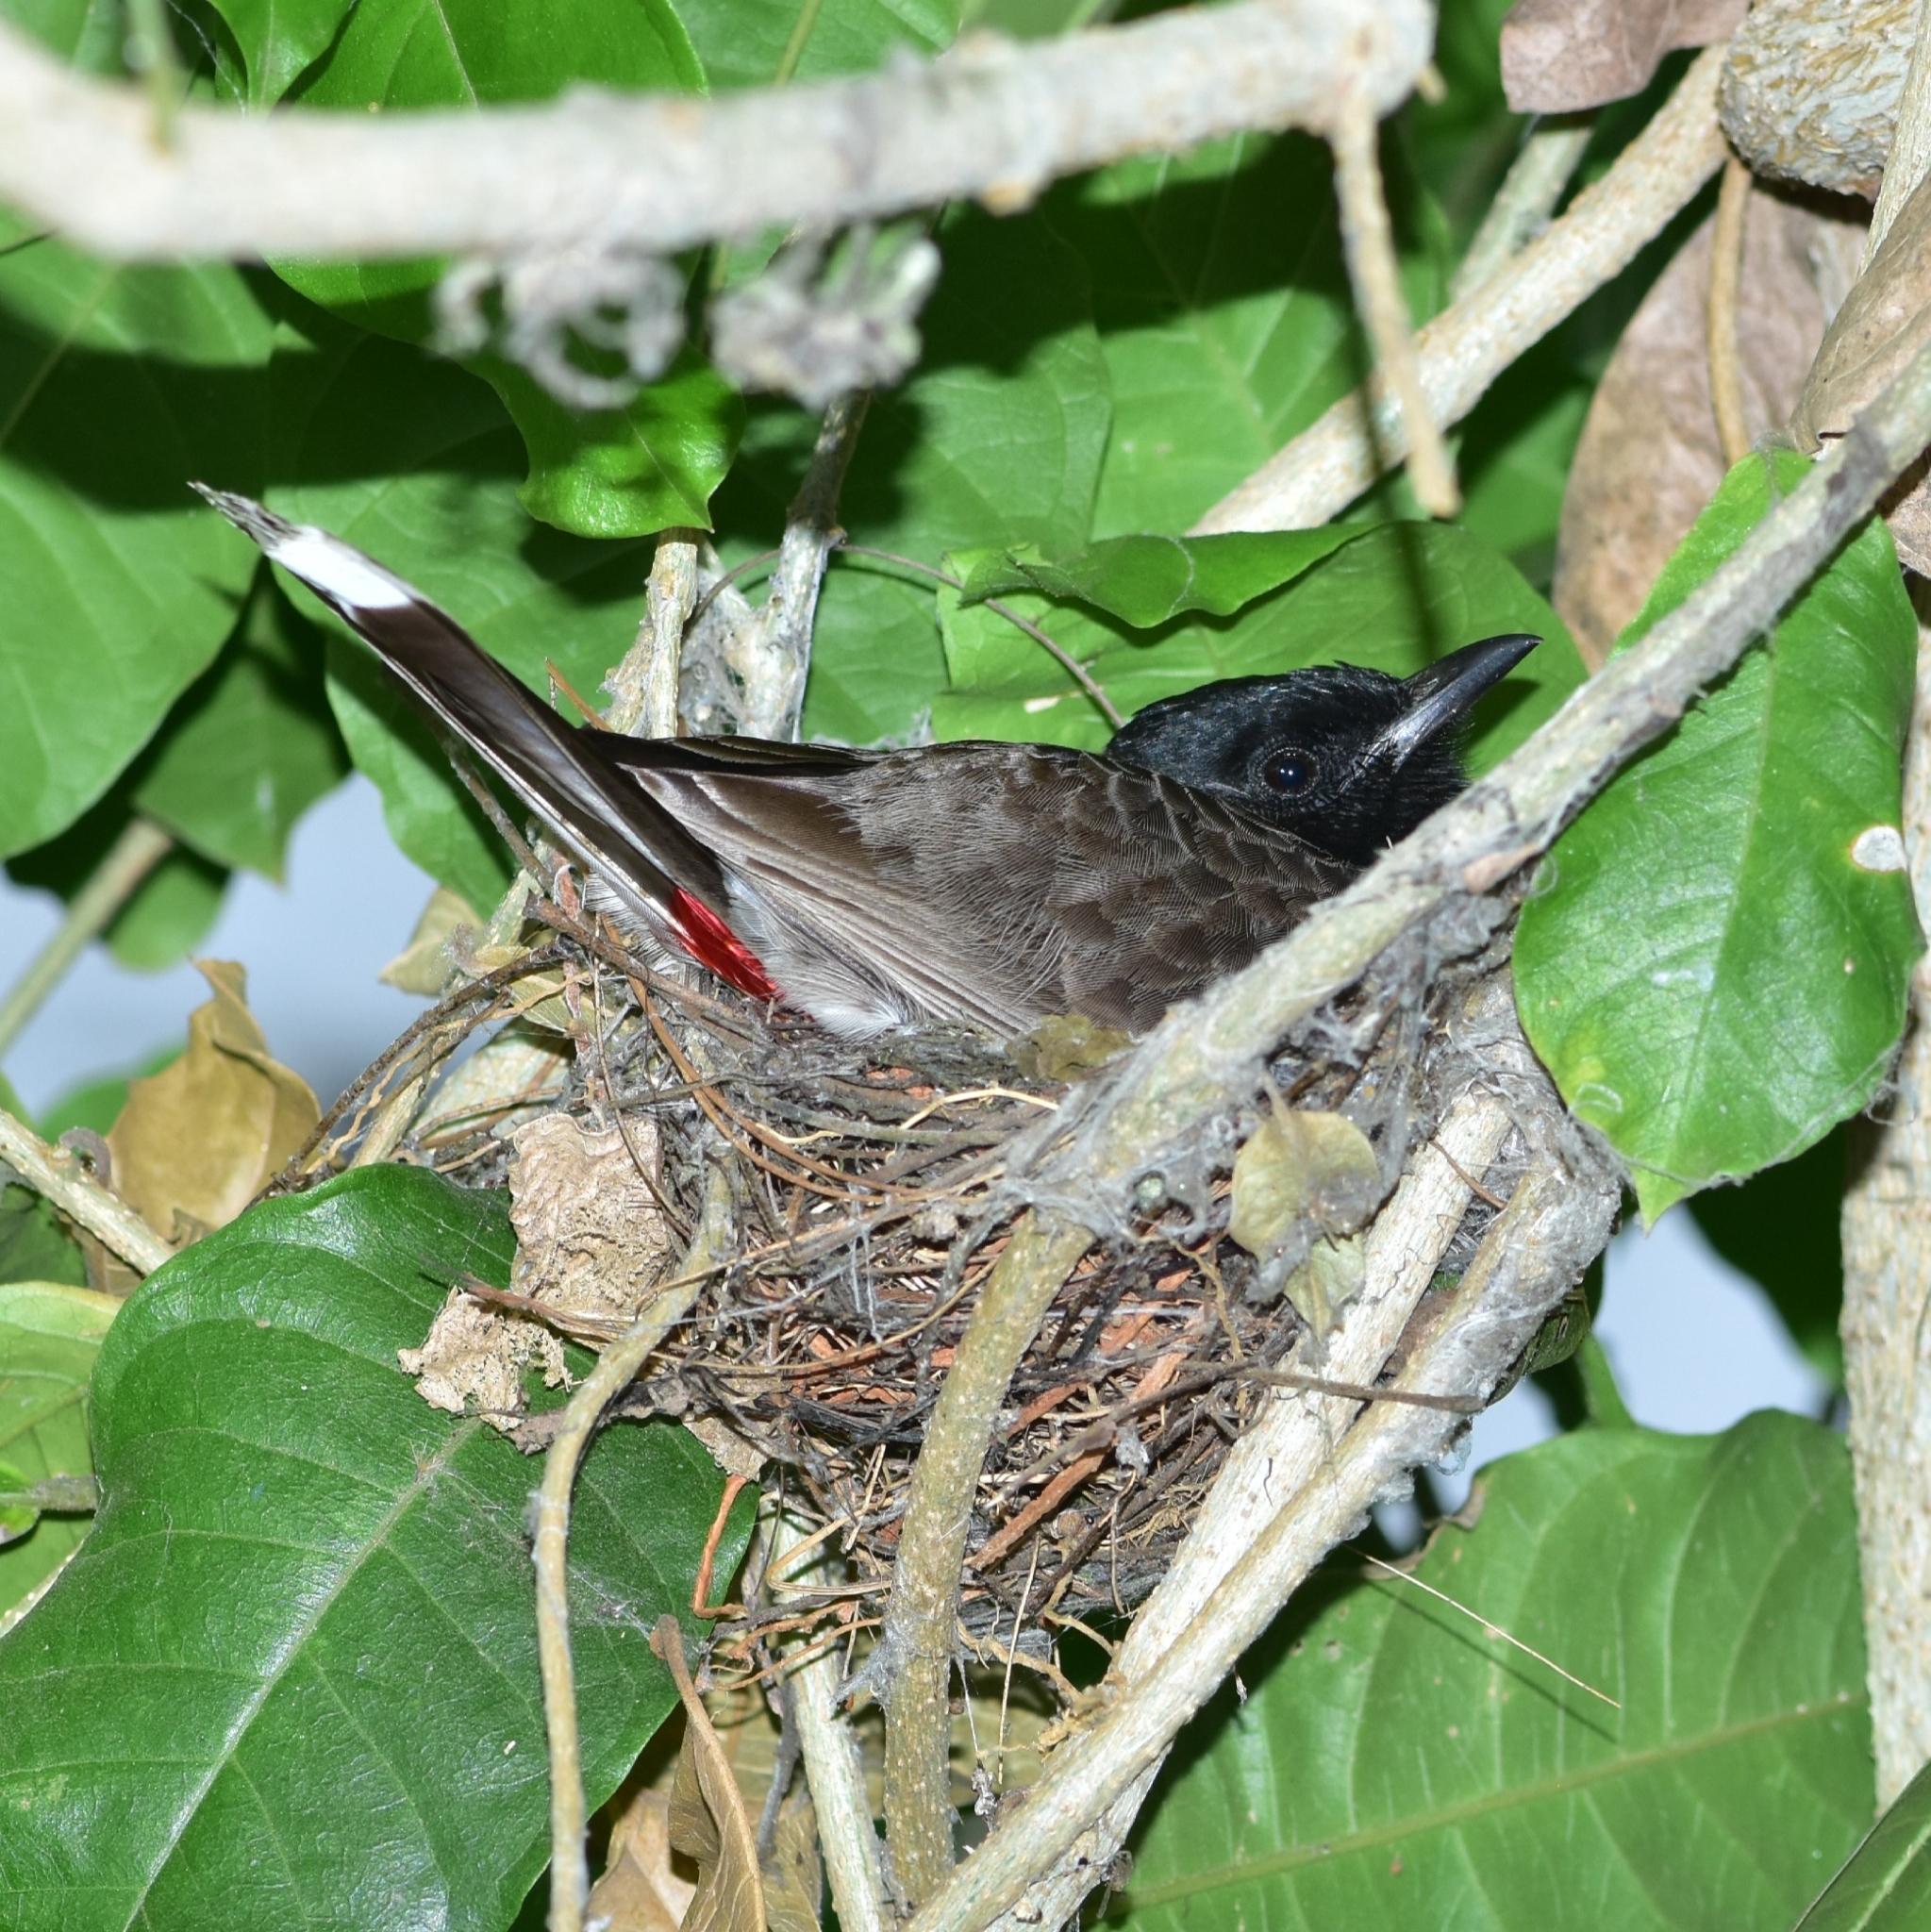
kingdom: Animalia
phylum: Chordata
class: Aves
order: Passeriformes
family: Pycnonotidae
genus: Pycnonotus
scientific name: Pycnonotus cafer
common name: Red-vented bulbul
